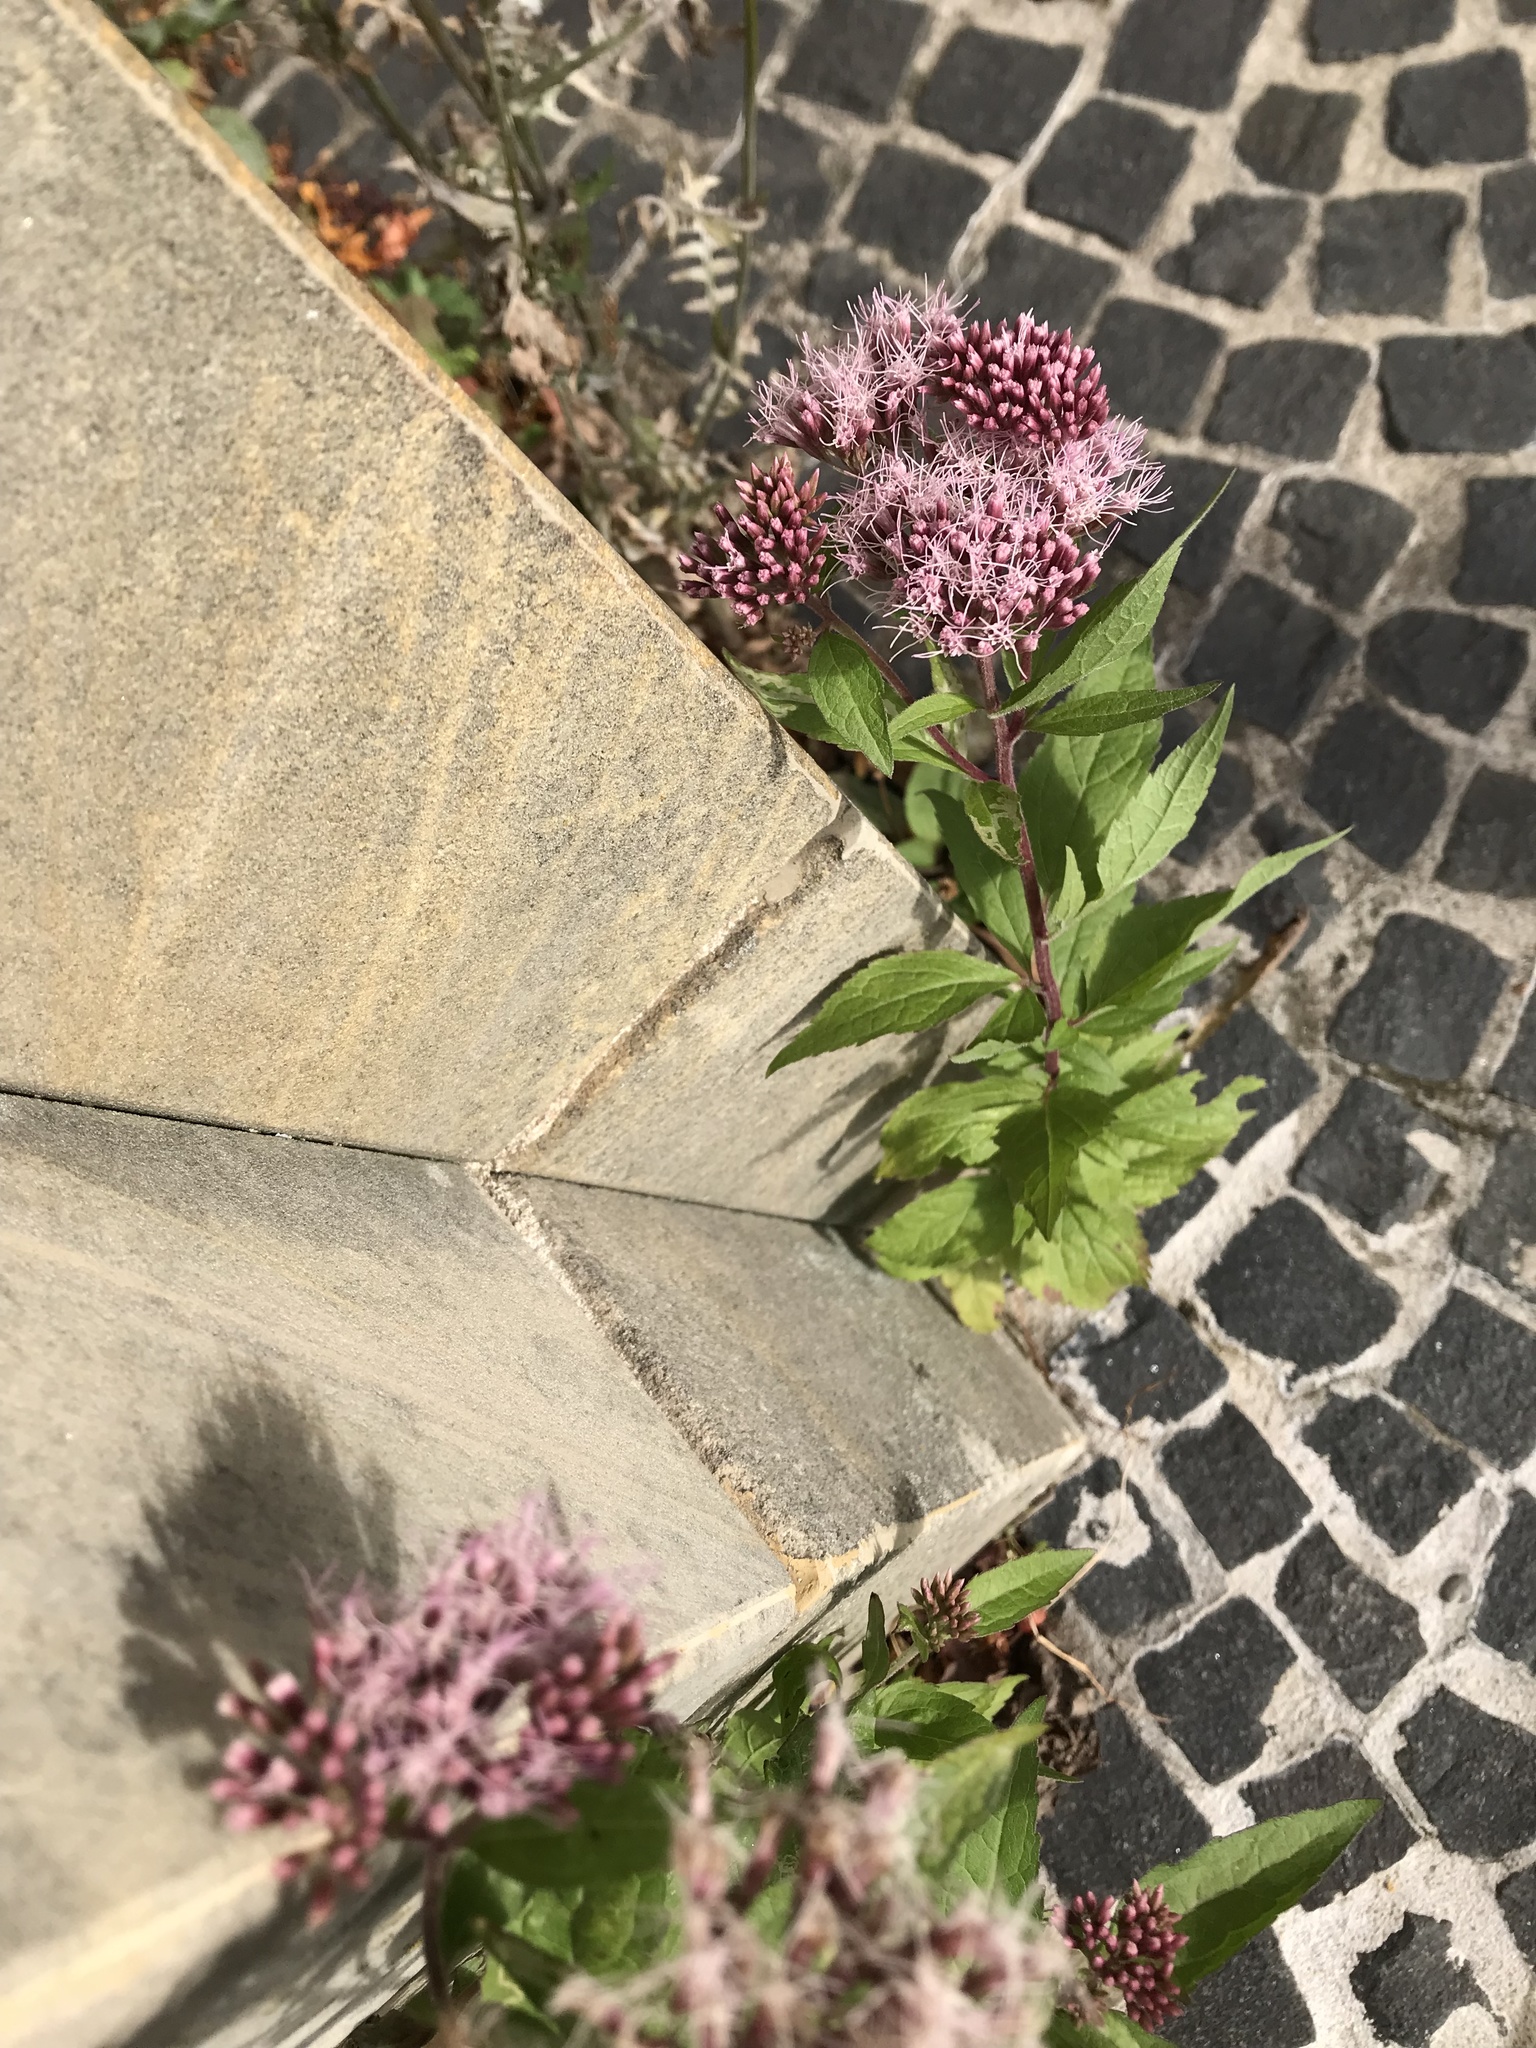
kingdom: Plantae
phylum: Tracheophyta
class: Magnoliopsida
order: Asterales
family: Asteraceae
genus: Eupatorium
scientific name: Eupatorium cannabinum
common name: Hemp-agrimony
